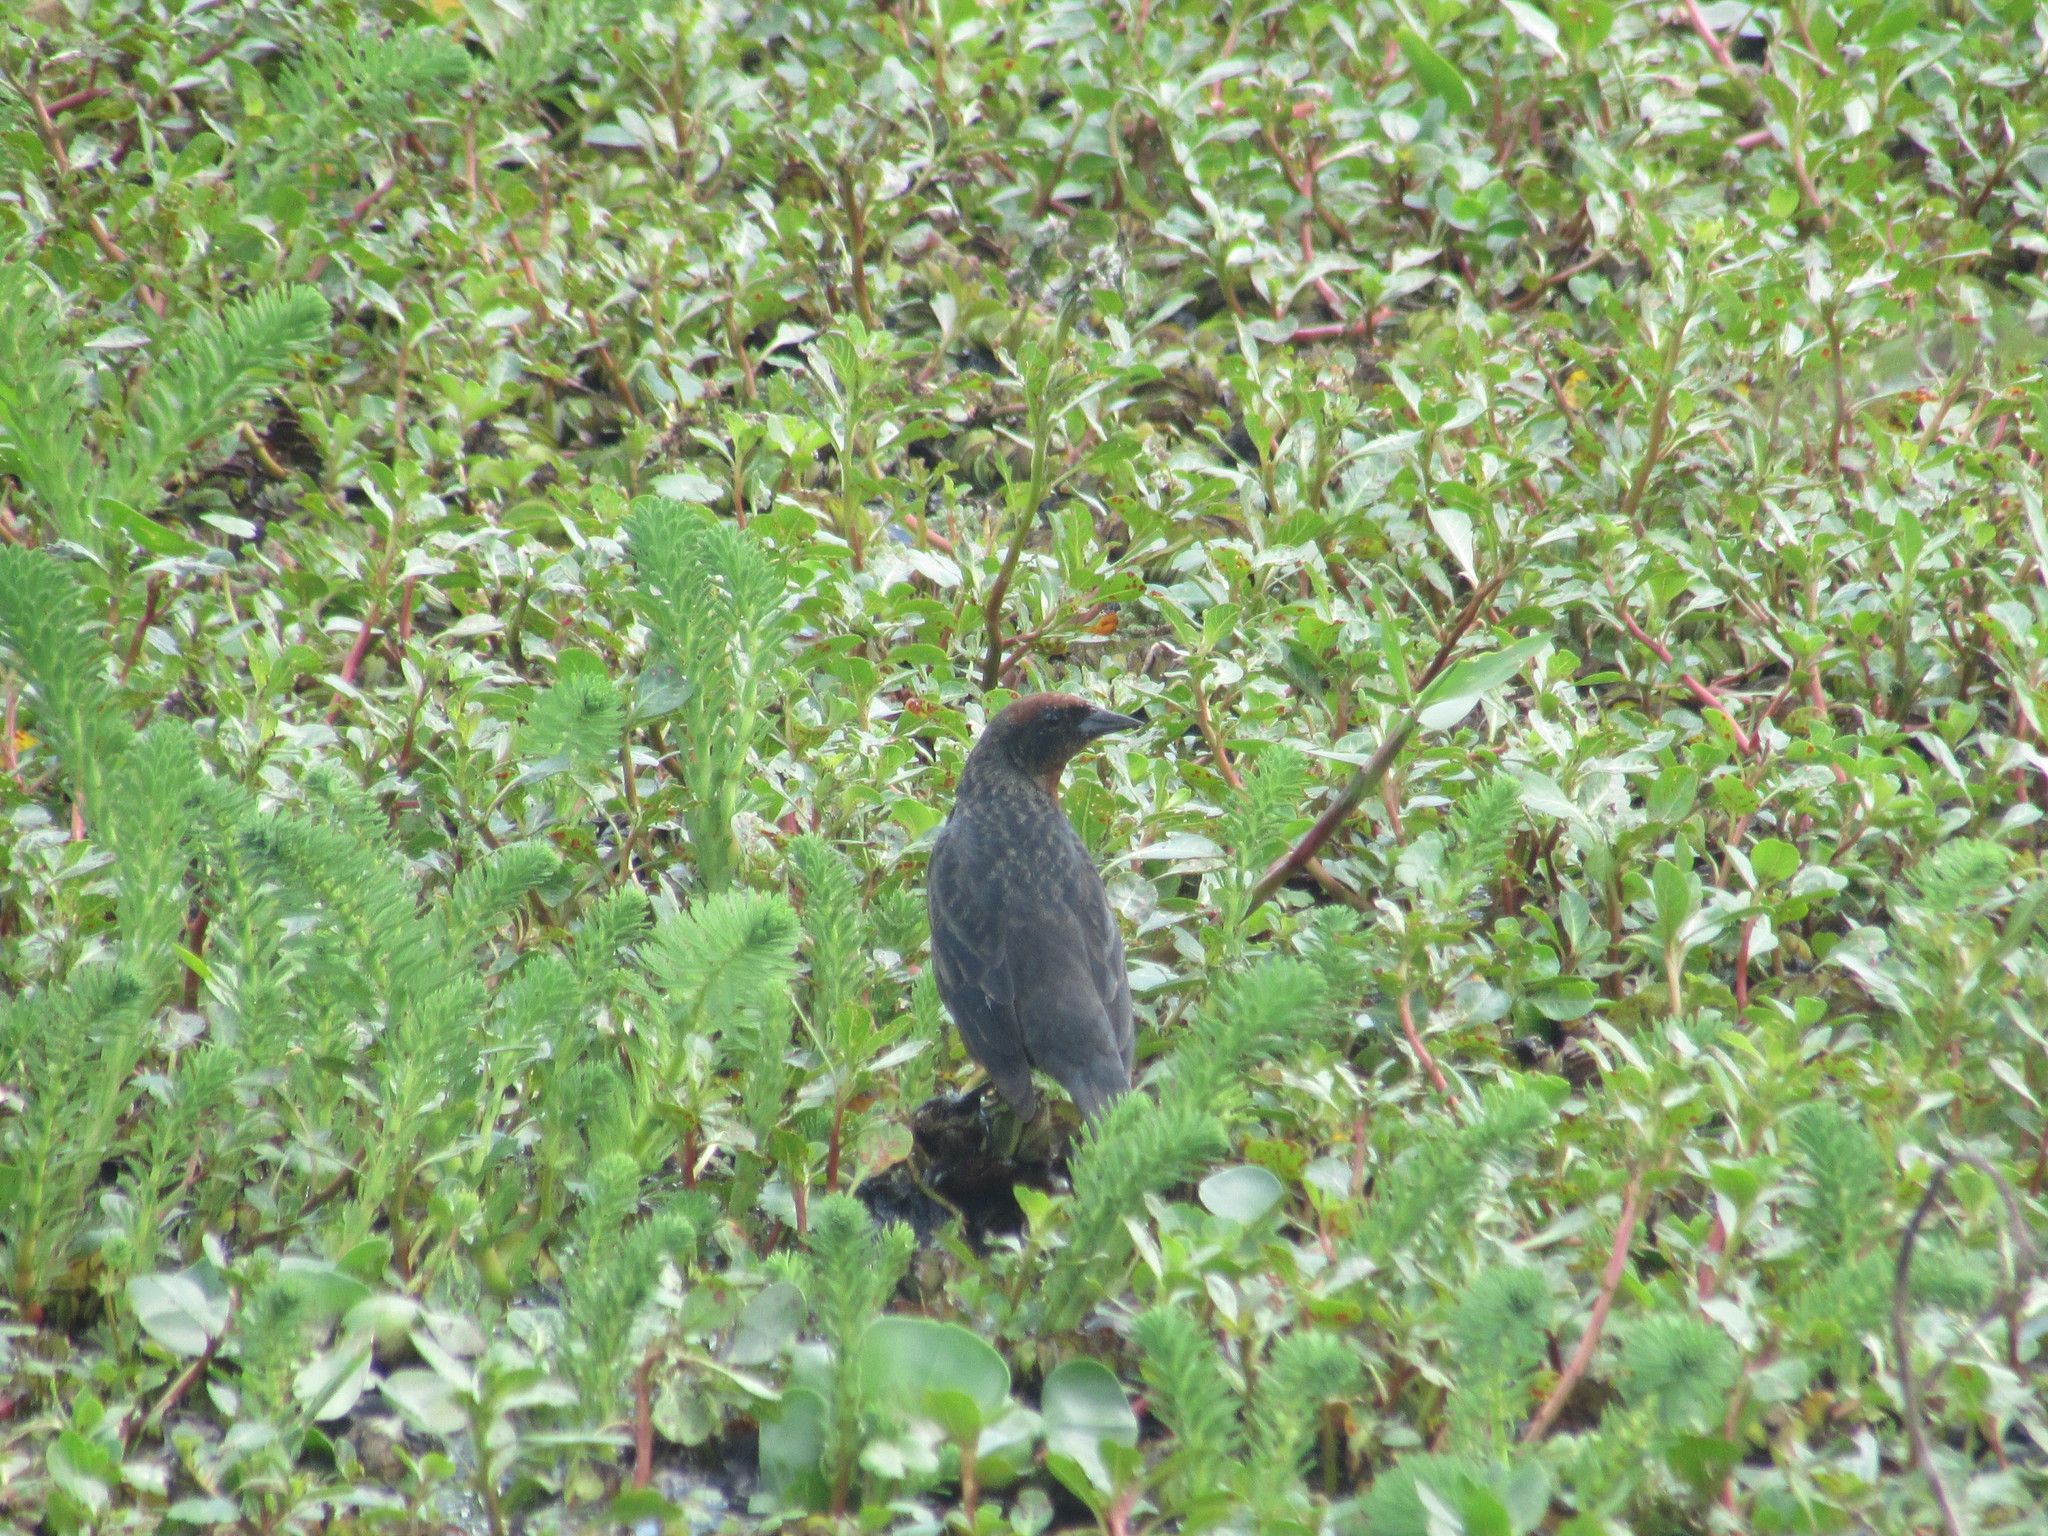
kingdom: Animalia
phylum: Chordata
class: Aves
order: Passeriformes
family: Icteridae
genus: Chrysomus
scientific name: Chrysomus ruficapillus
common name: Chestnut-capped blackbird
